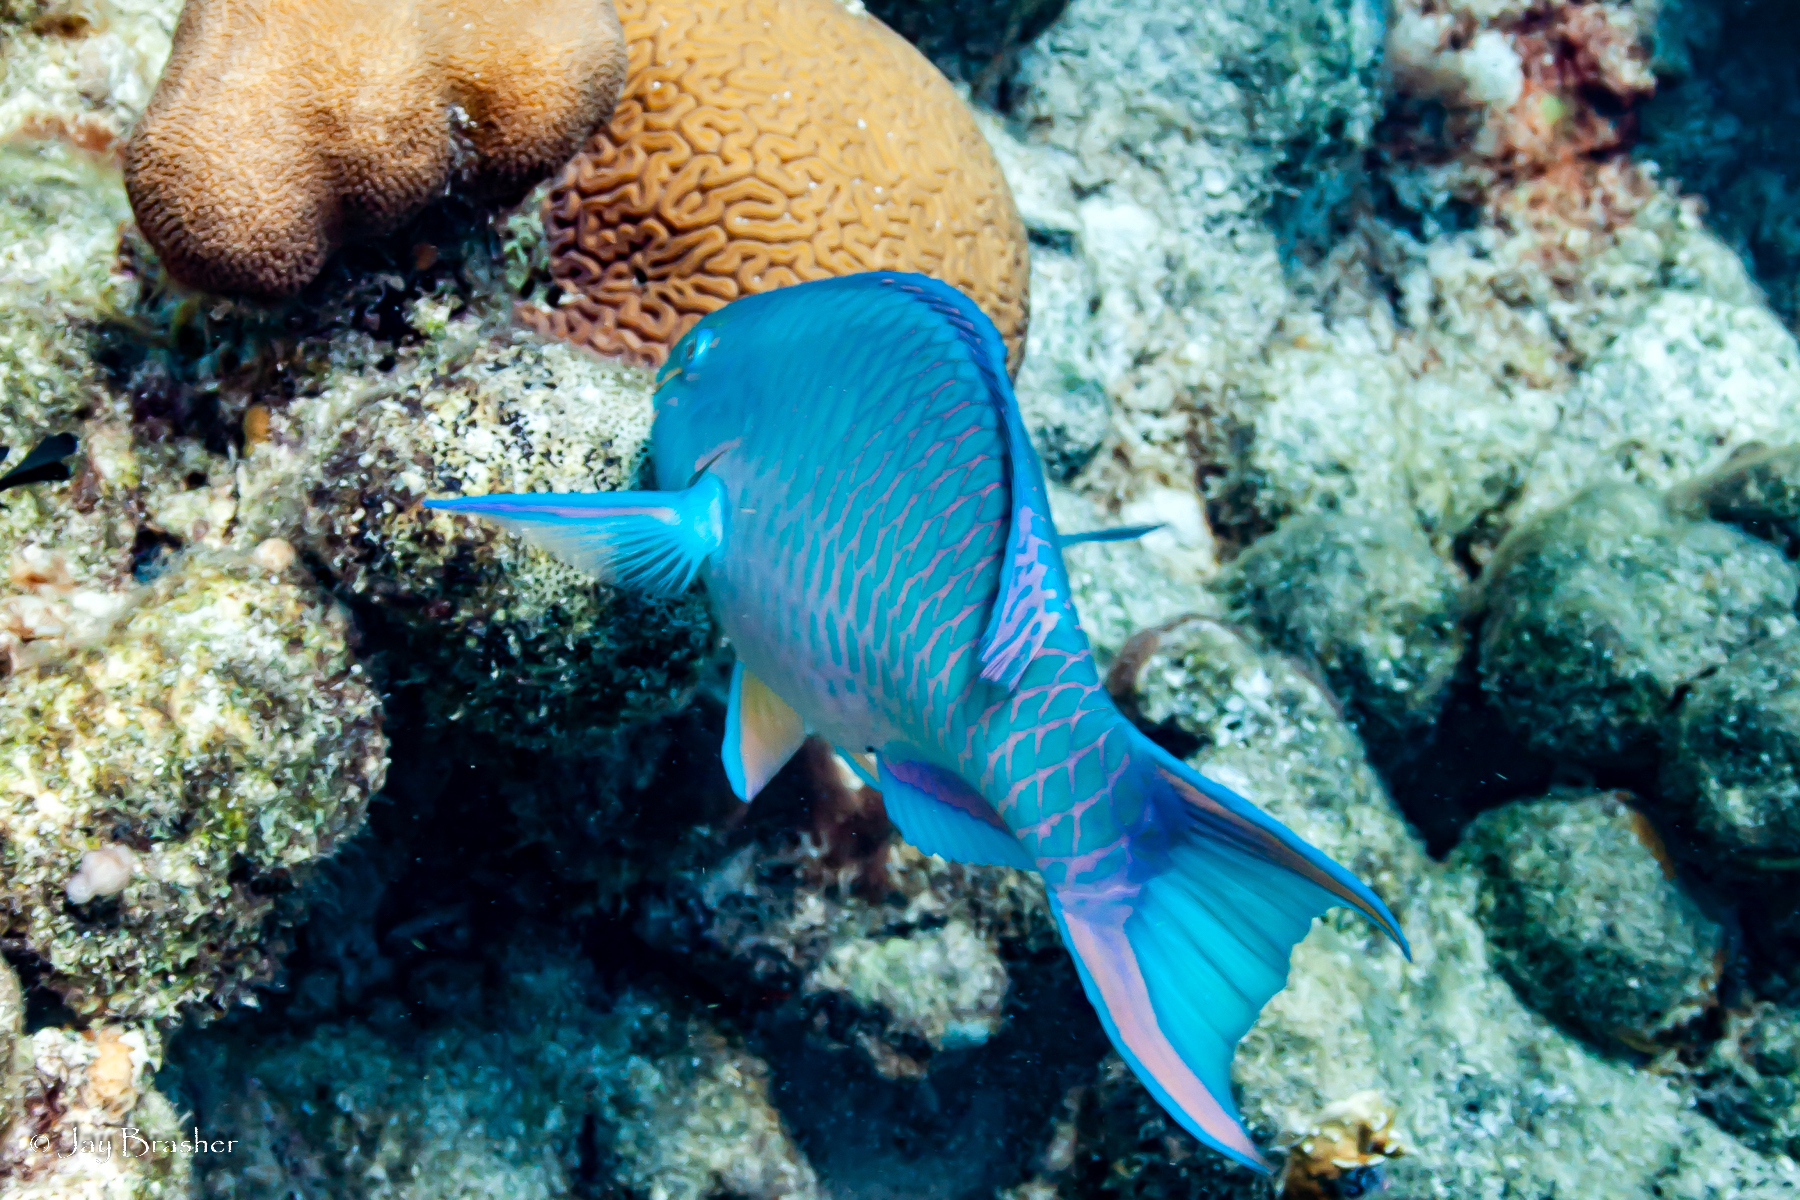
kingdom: Animalia
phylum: Chordata
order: Perciformes
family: Scaridae
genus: Scarus
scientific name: Scarus vetula
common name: Queen parrotfish
